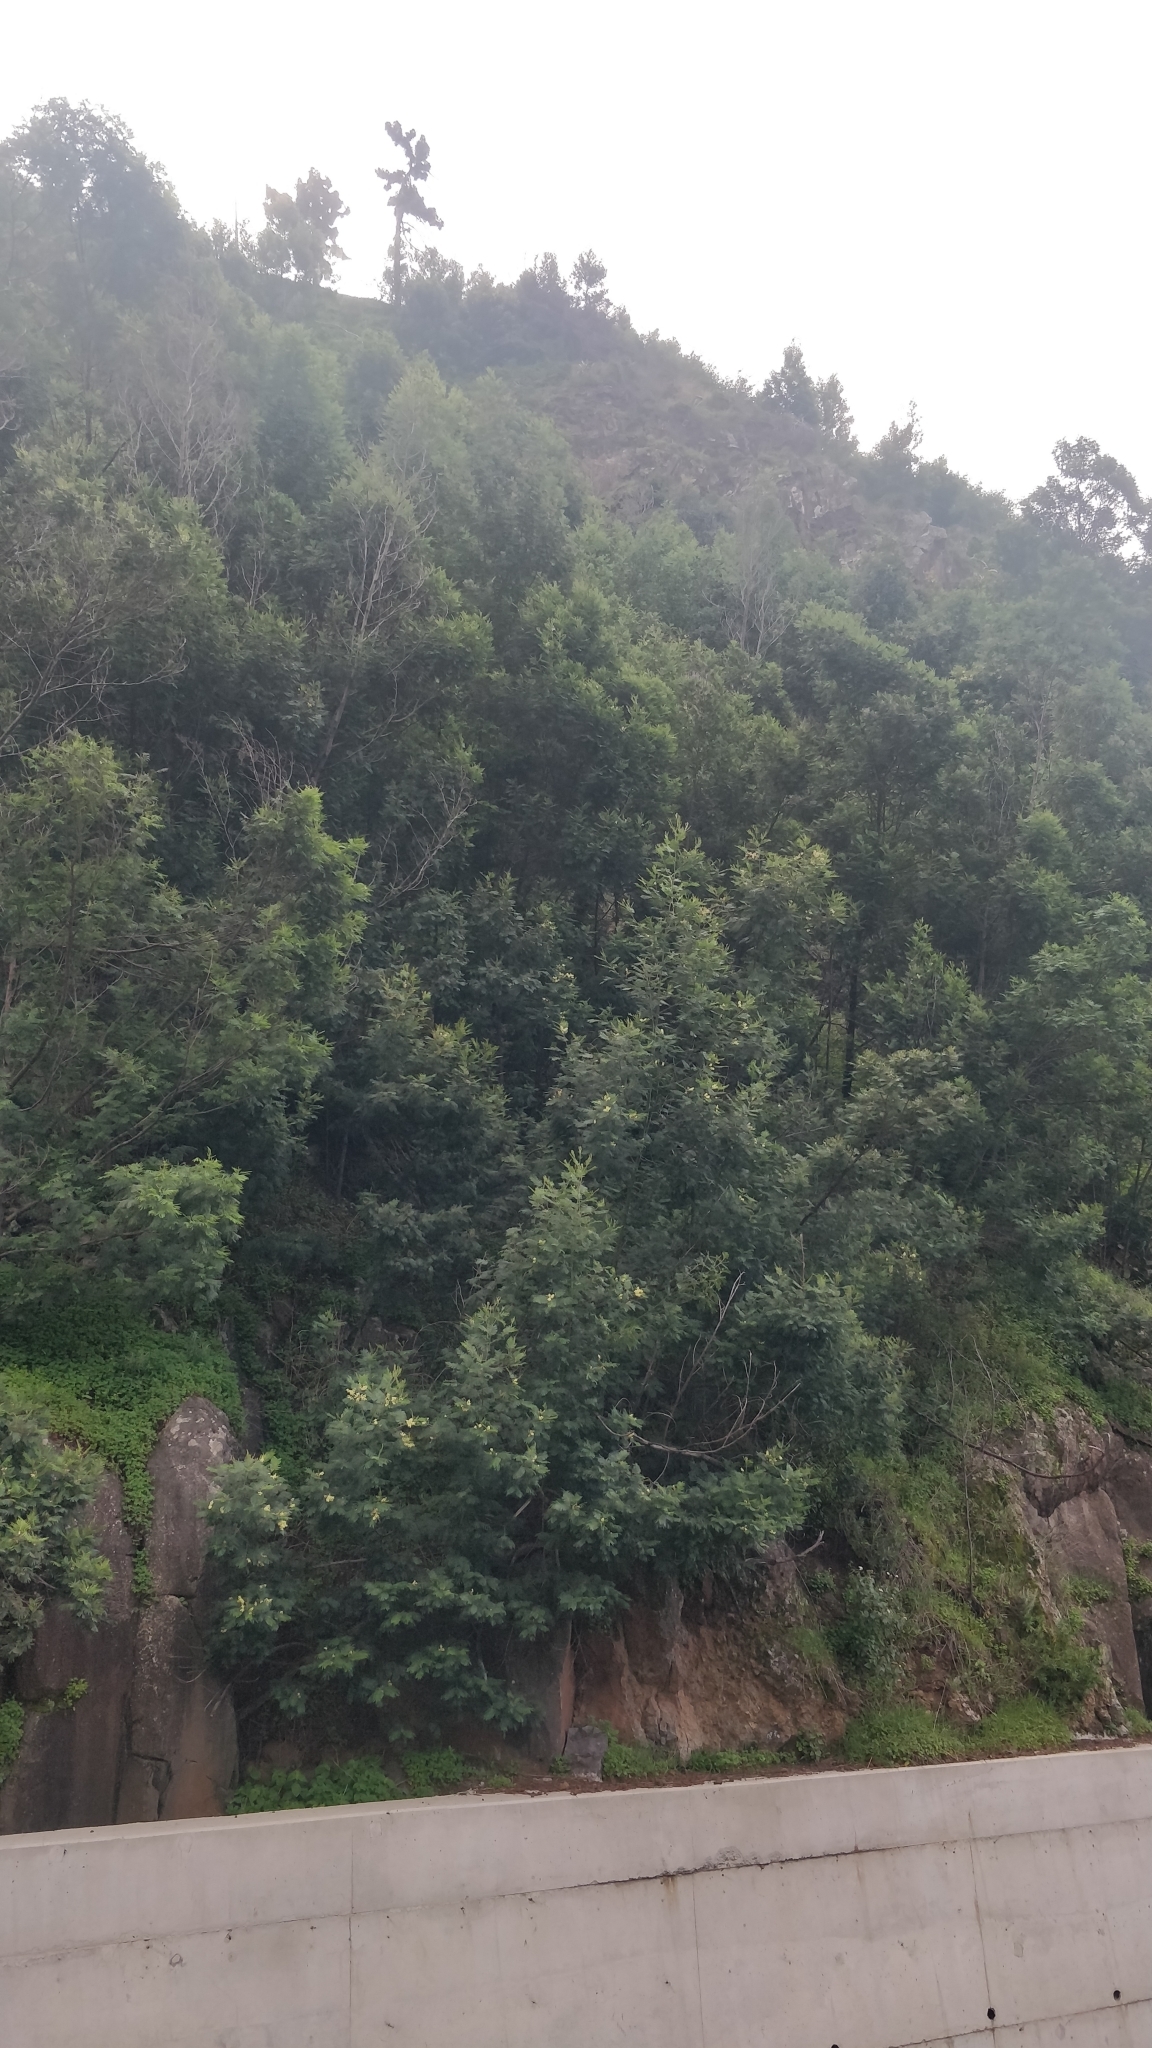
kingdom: Plantae
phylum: Tracheophyta
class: Magnoliopsida
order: Fabales
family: Fabaceae
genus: Acacia
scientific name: Acacia mearnsii
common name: Black wattle
